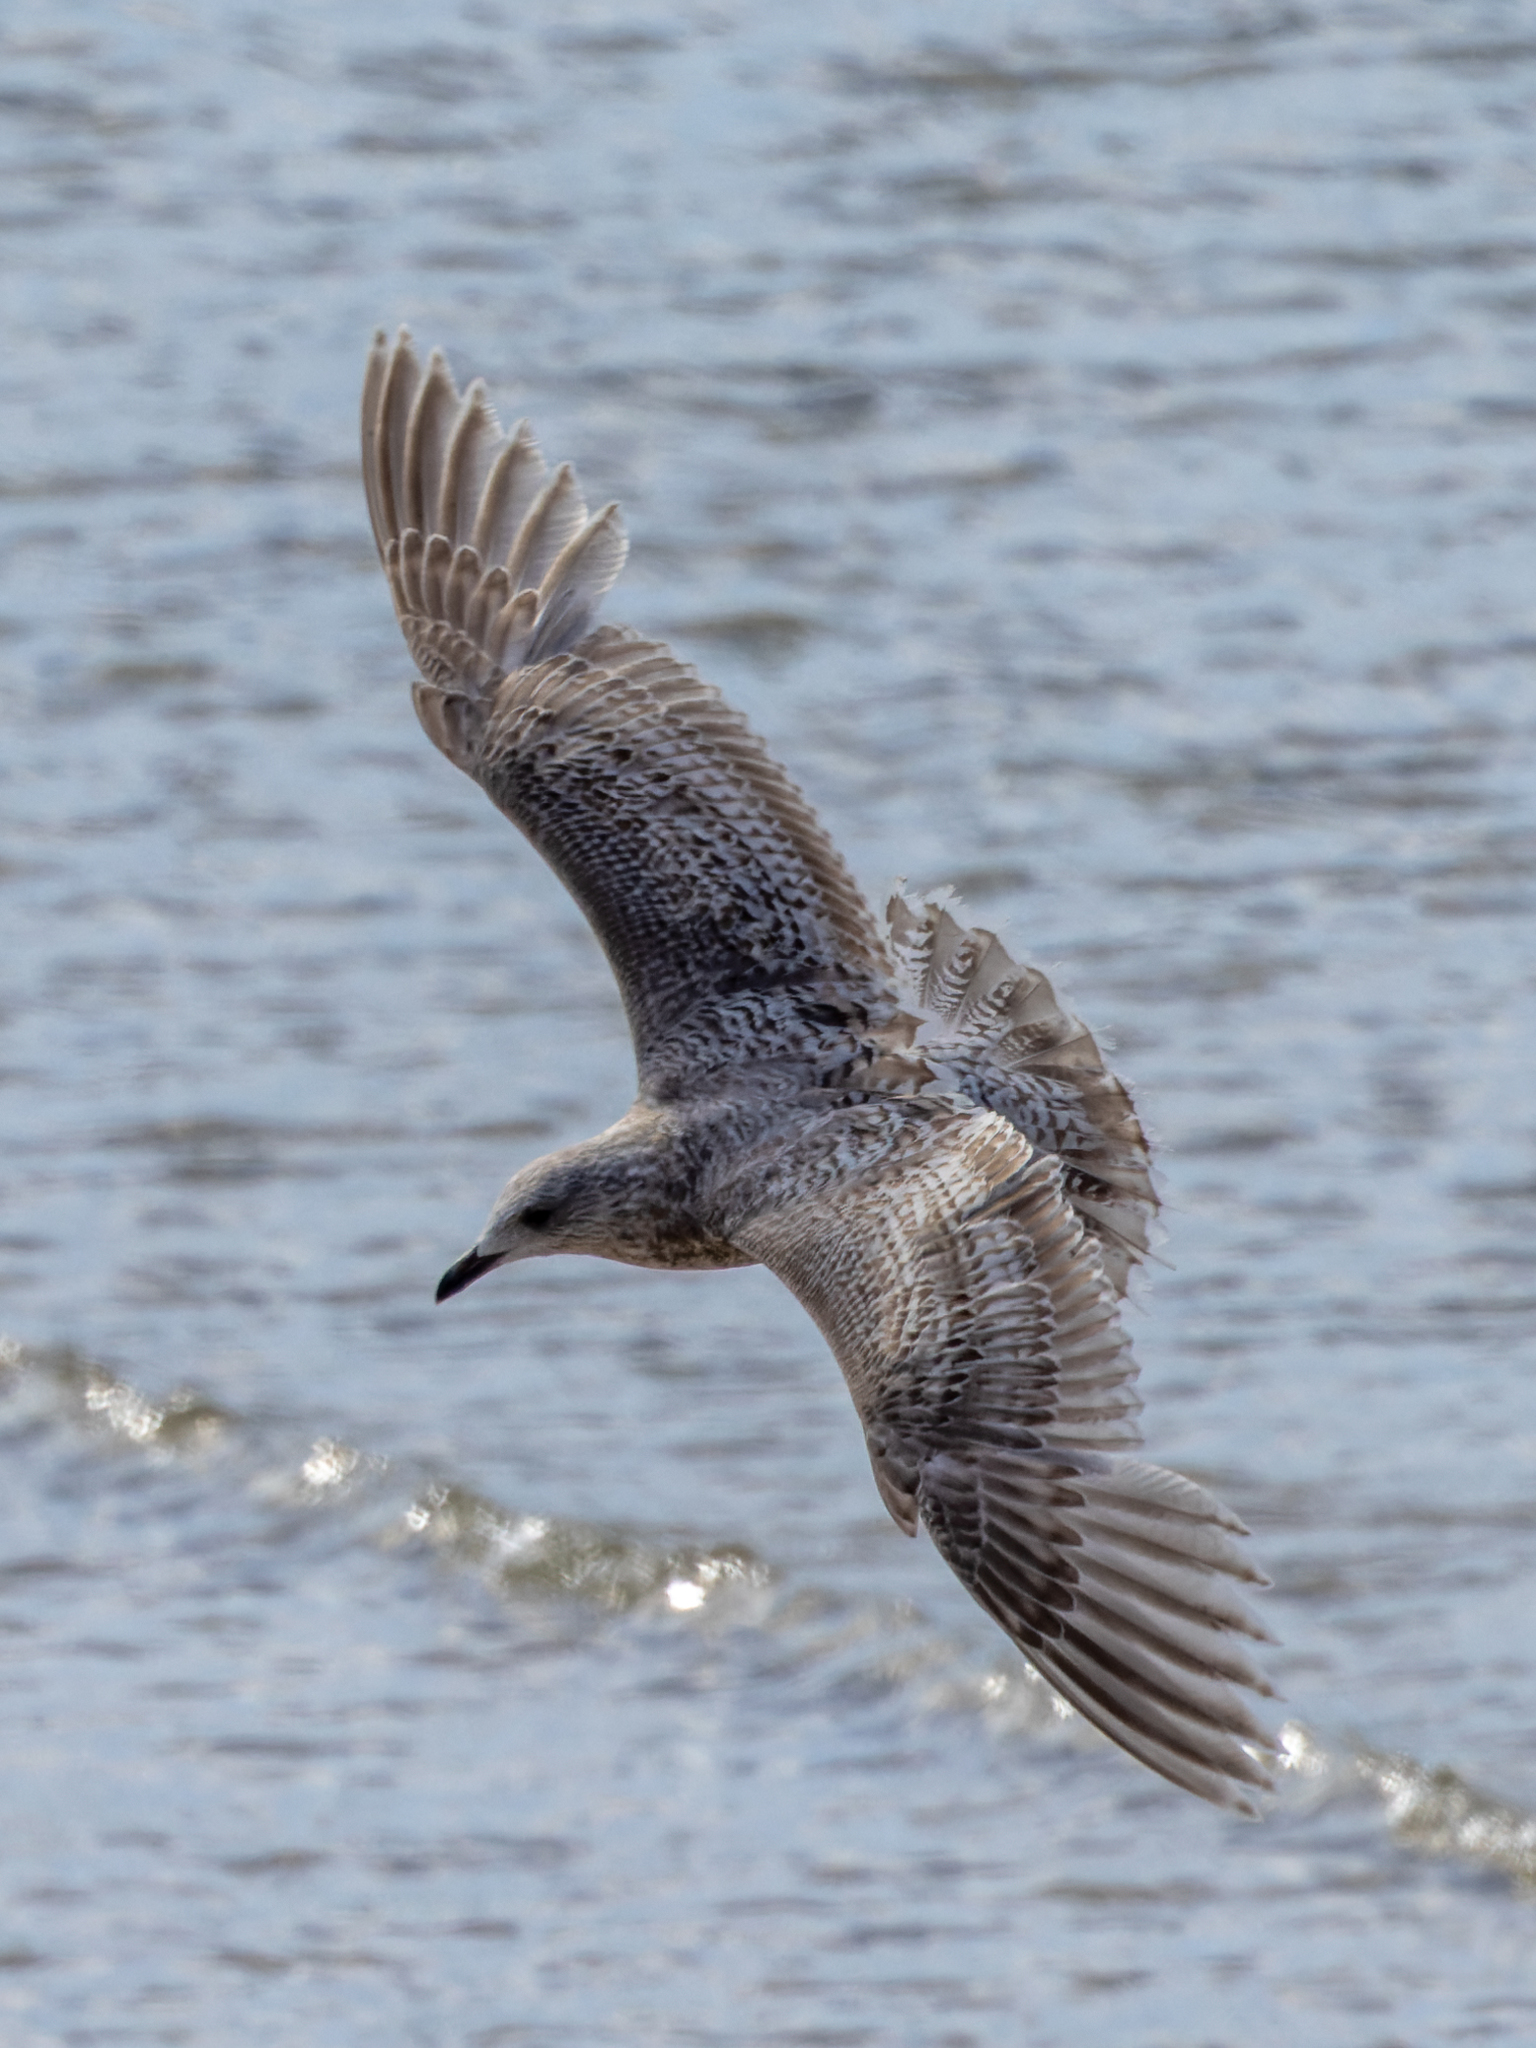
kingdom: Animalia
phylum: Chordata
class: Aves
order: Charadriiformes
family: Laridae
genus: Larus
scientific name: Larus glaucoides
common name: Iceland gull
